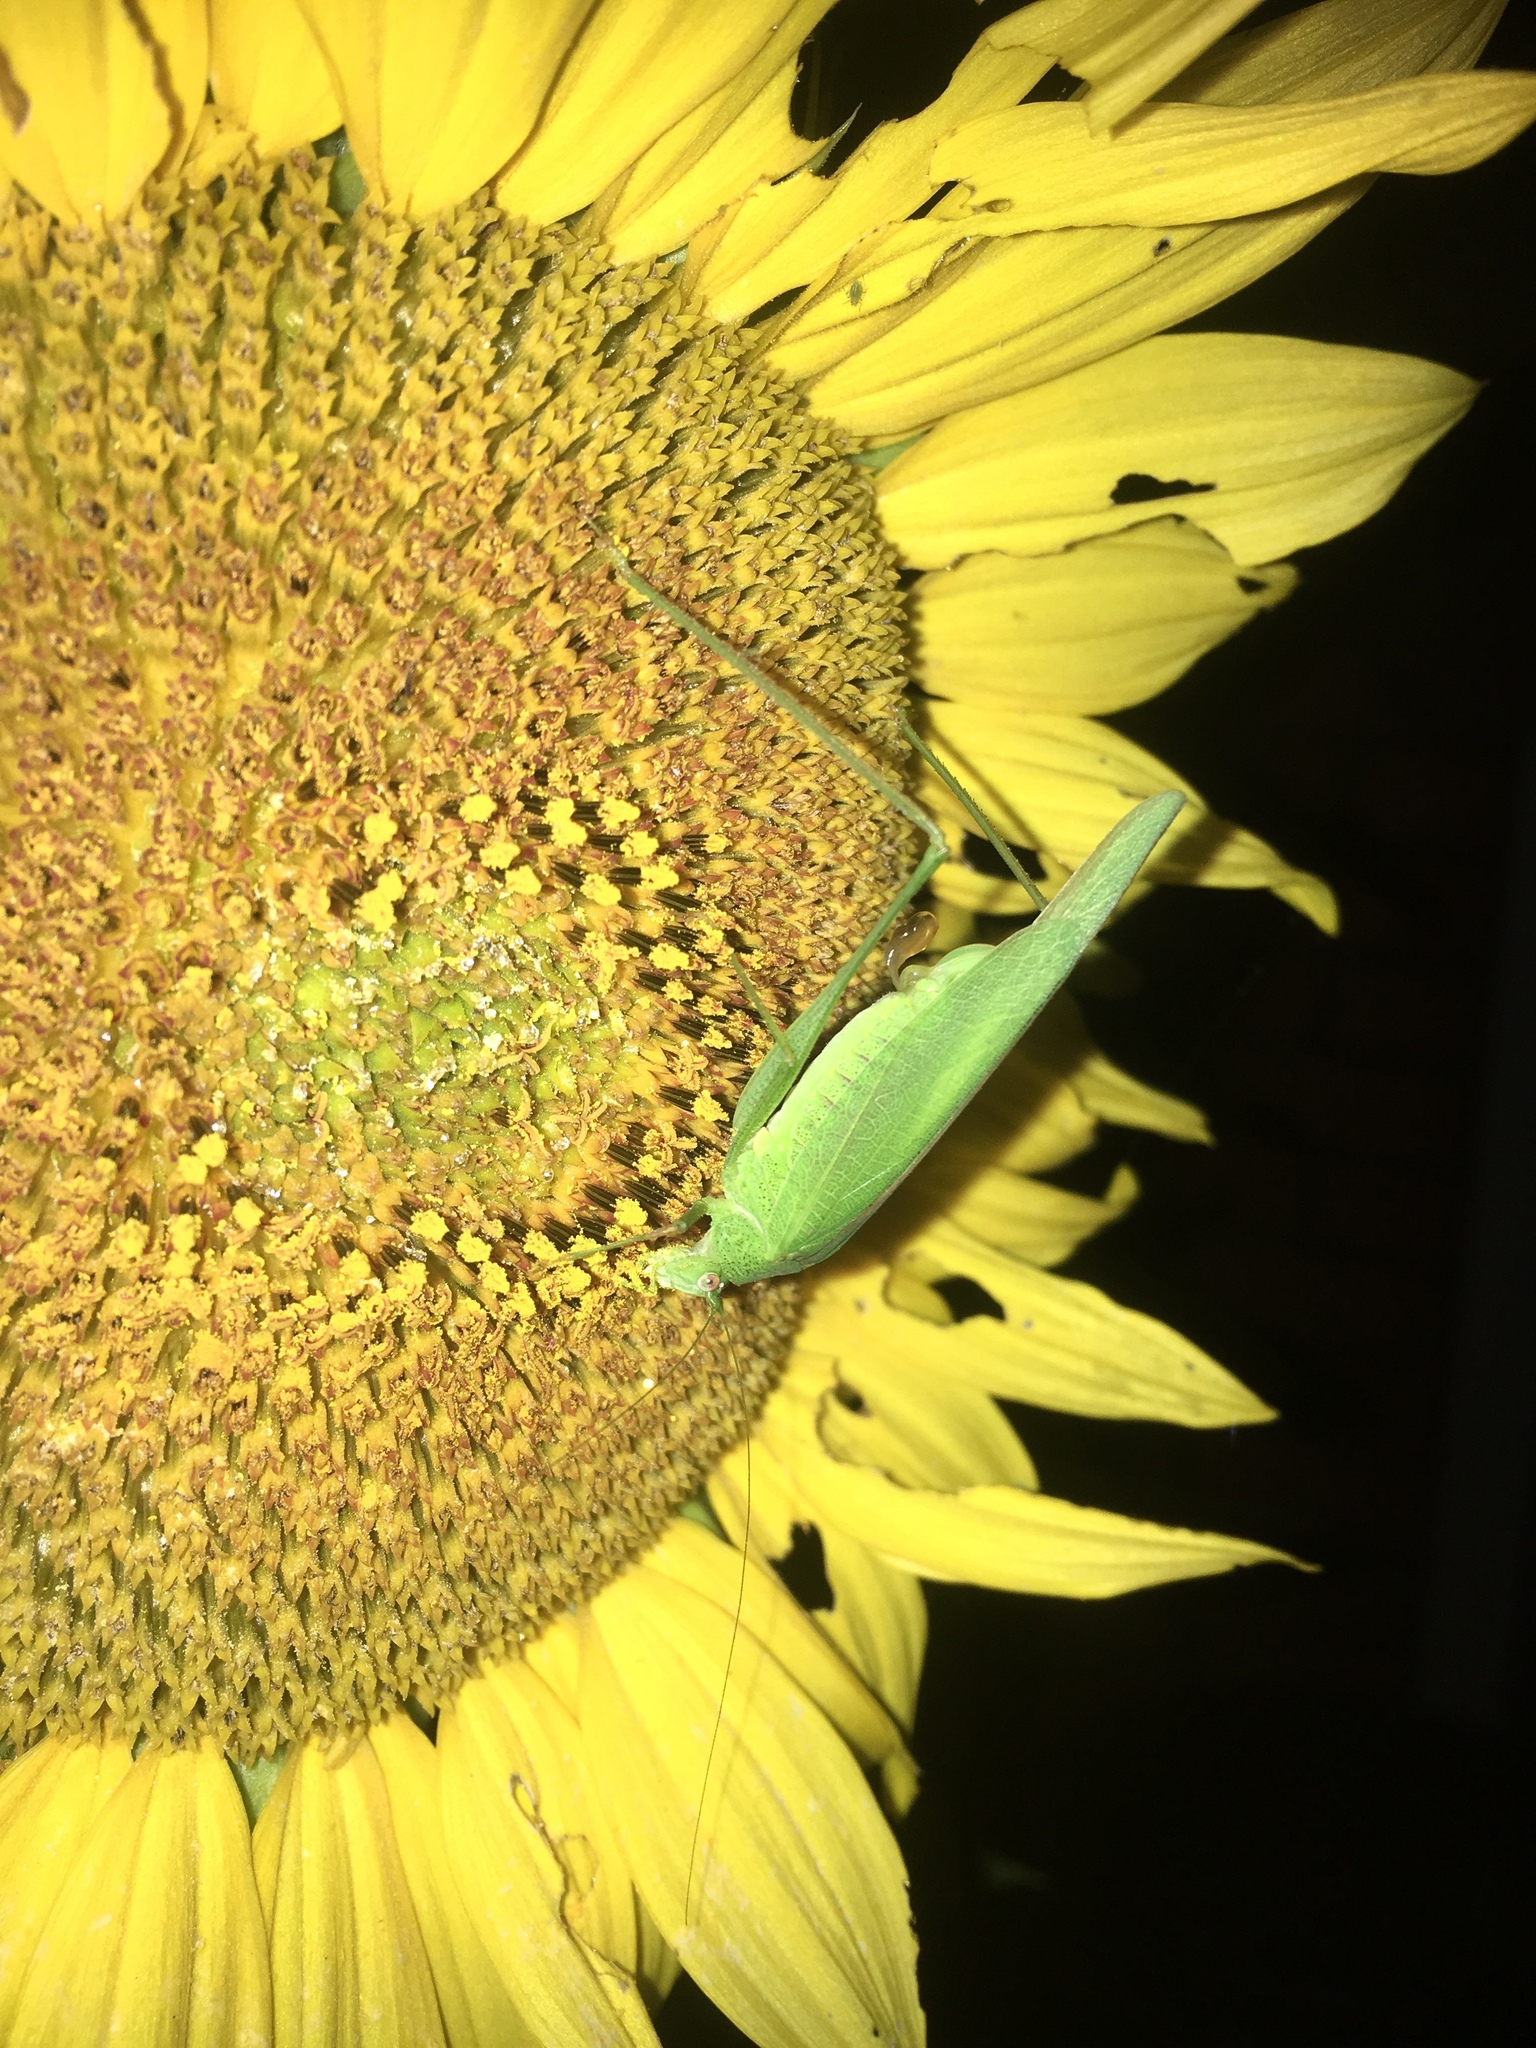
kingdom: Animalia
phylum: Arthropoda
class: Insecta
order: Orthoptera
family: Tettigoniidae
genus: Phaneroptera
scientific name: Phaneroptera nana
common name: Southern sickle bush-cricket
